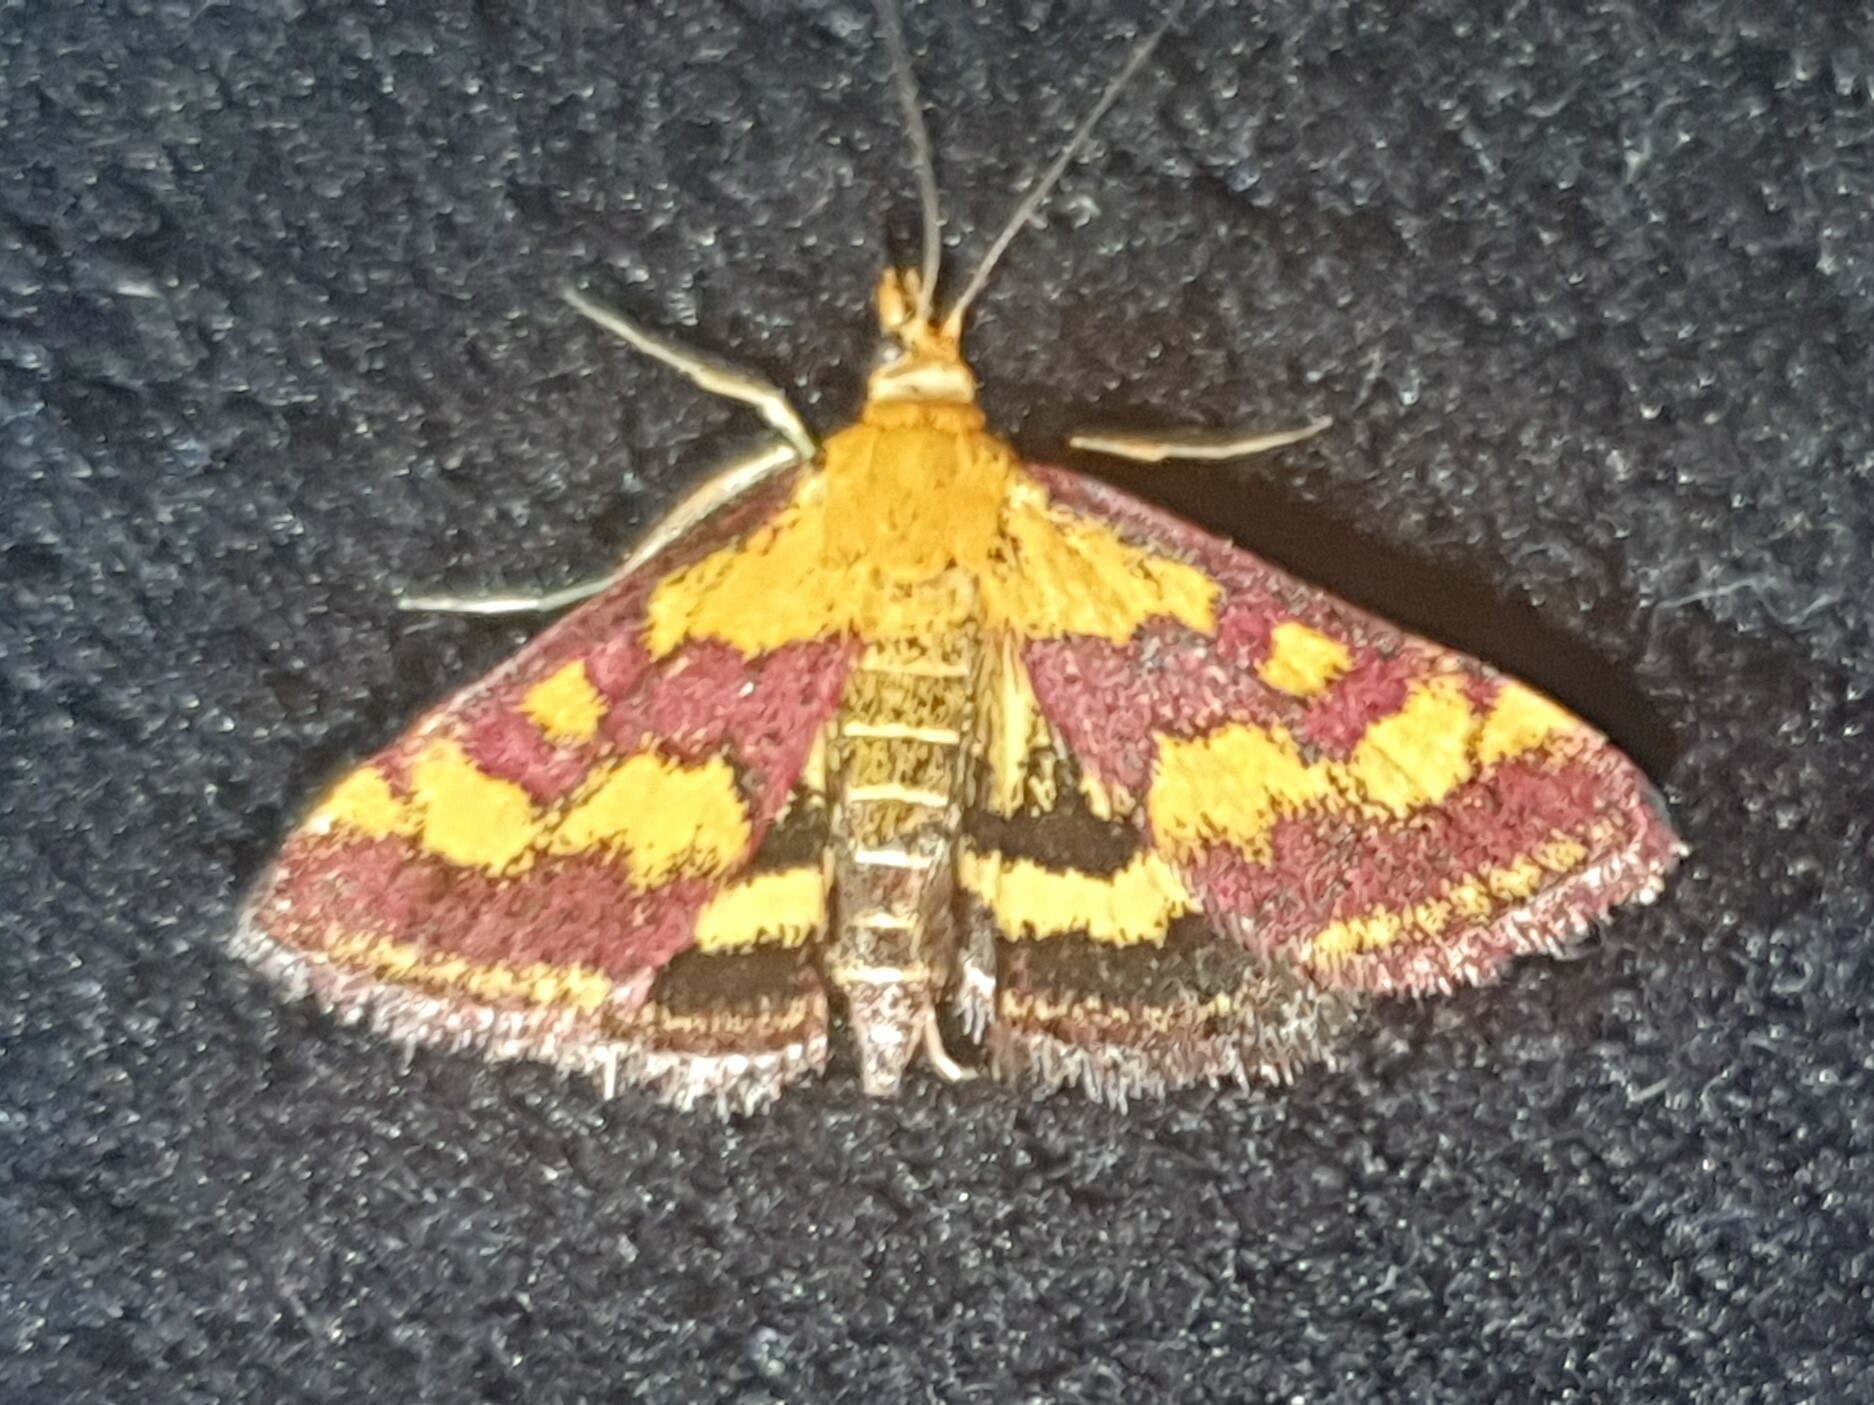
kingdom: Animalia
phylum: Arthropoda
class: Insecta
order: Lepidoptera
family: Crambidae
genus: Pyrausta
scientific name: Pyrausta purpuralis
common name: Common purple & gold
